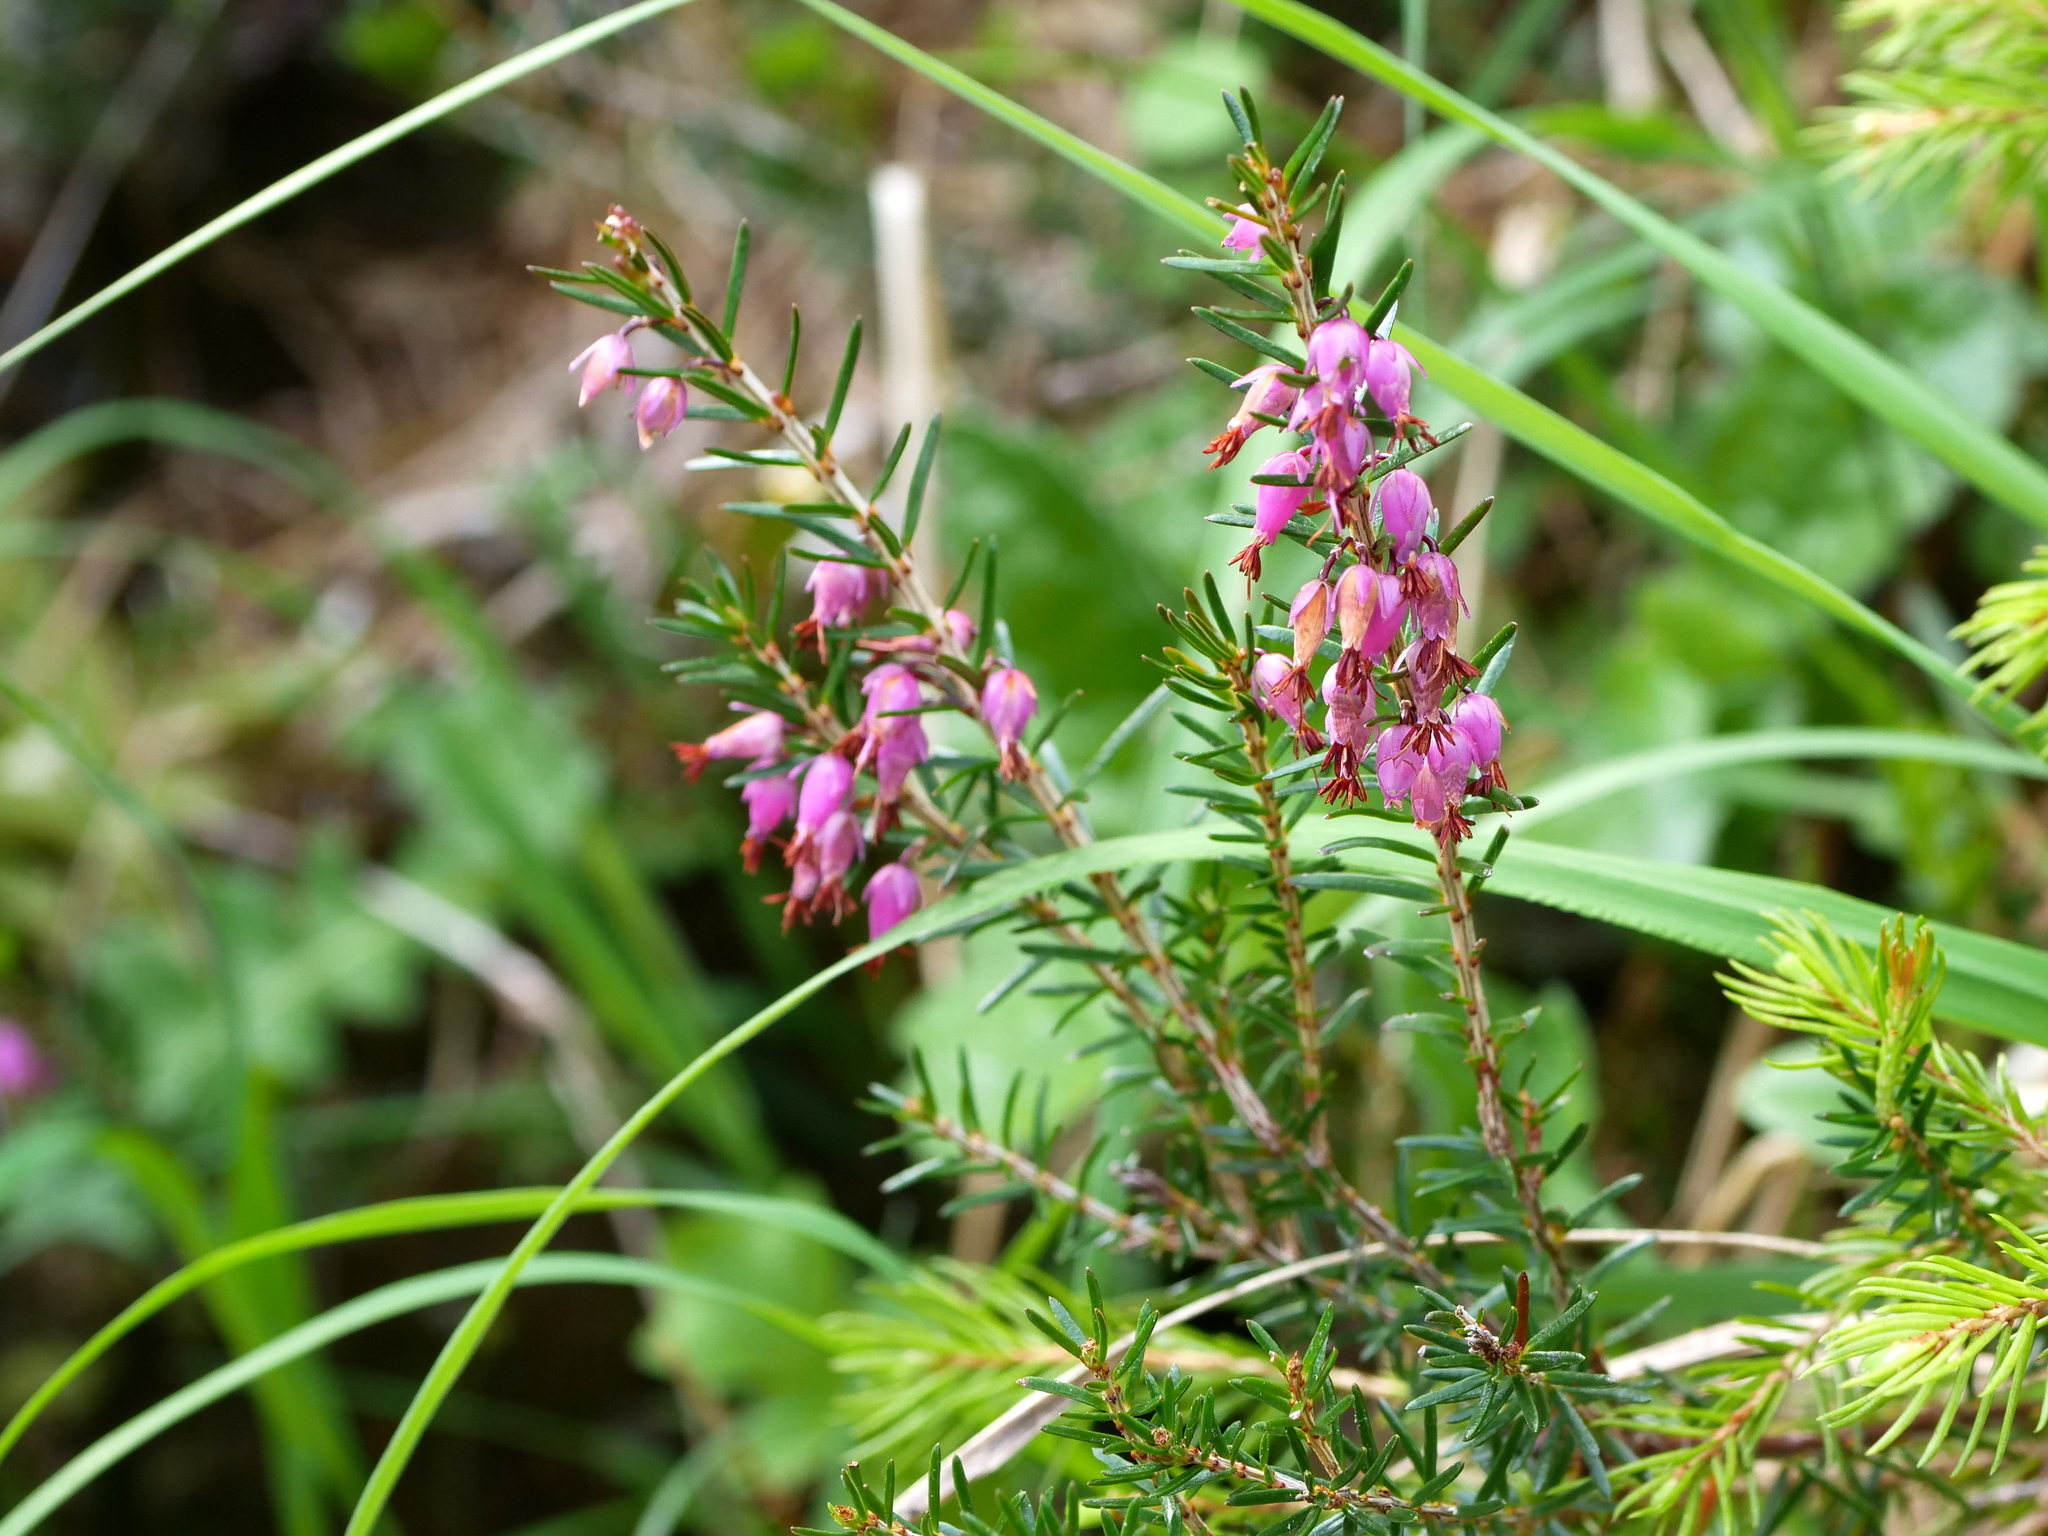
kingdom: Plantae
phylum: Tracheophyta
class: Magnoliopsida
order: Ericales
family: Ericaceae
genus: Erica
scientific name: Erica carnea
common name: Winter heath
